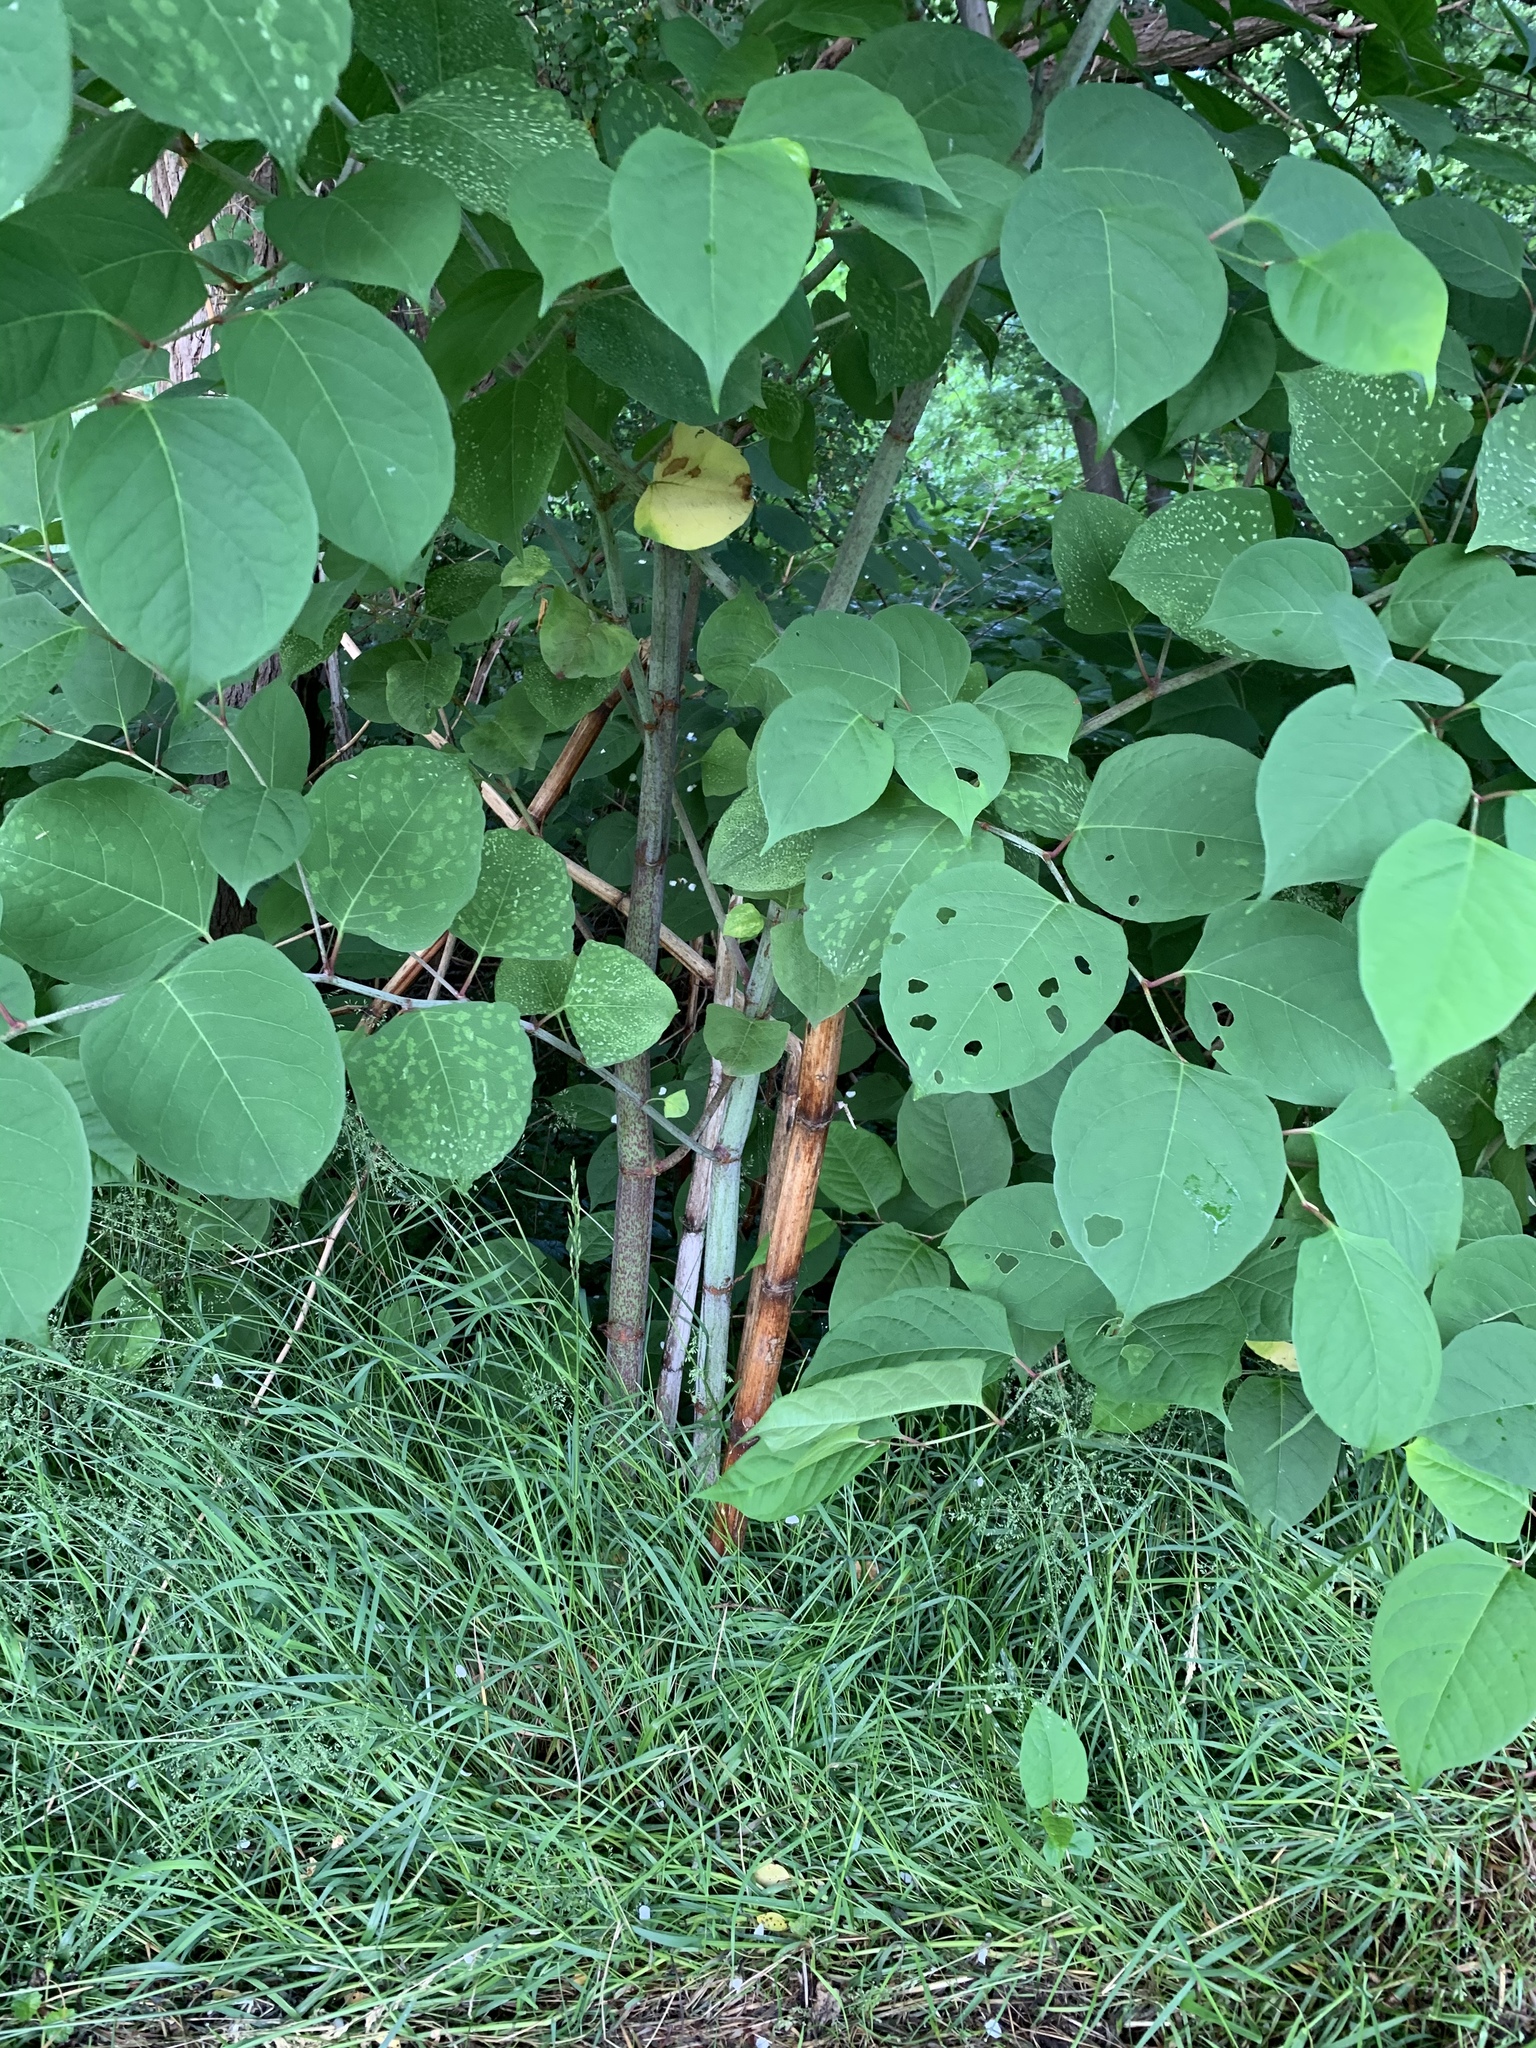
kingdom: Plantae
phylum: Tracheophyta
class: Magnoliopsida
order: Caryophyllales
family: Polygonaceae
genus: Reynoutria
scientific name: Reynoutria japonica
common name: Japanese knotweed
